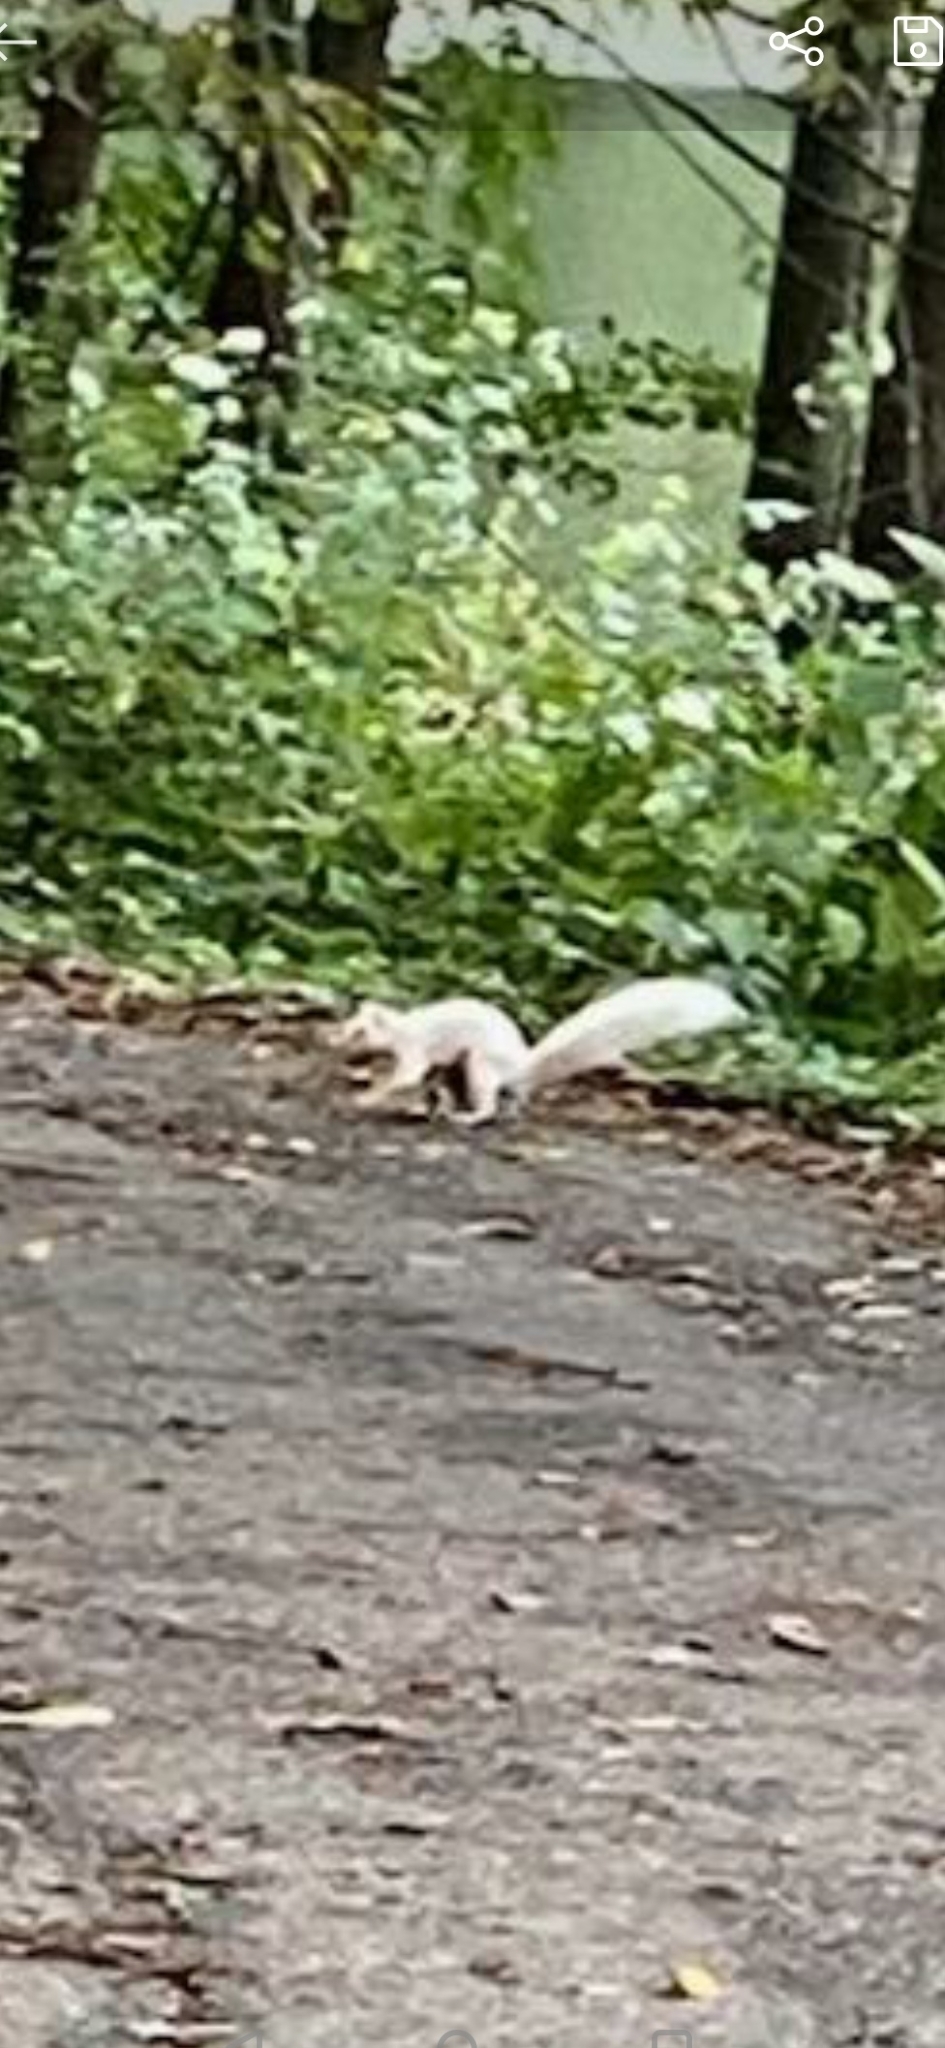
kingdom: Animalia
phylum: Chordata
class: Mammalia
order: Rodentia
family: Sciuridae
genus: Sciurus
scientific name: Sciurus carolinensis
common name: Eastern gray squirrel
